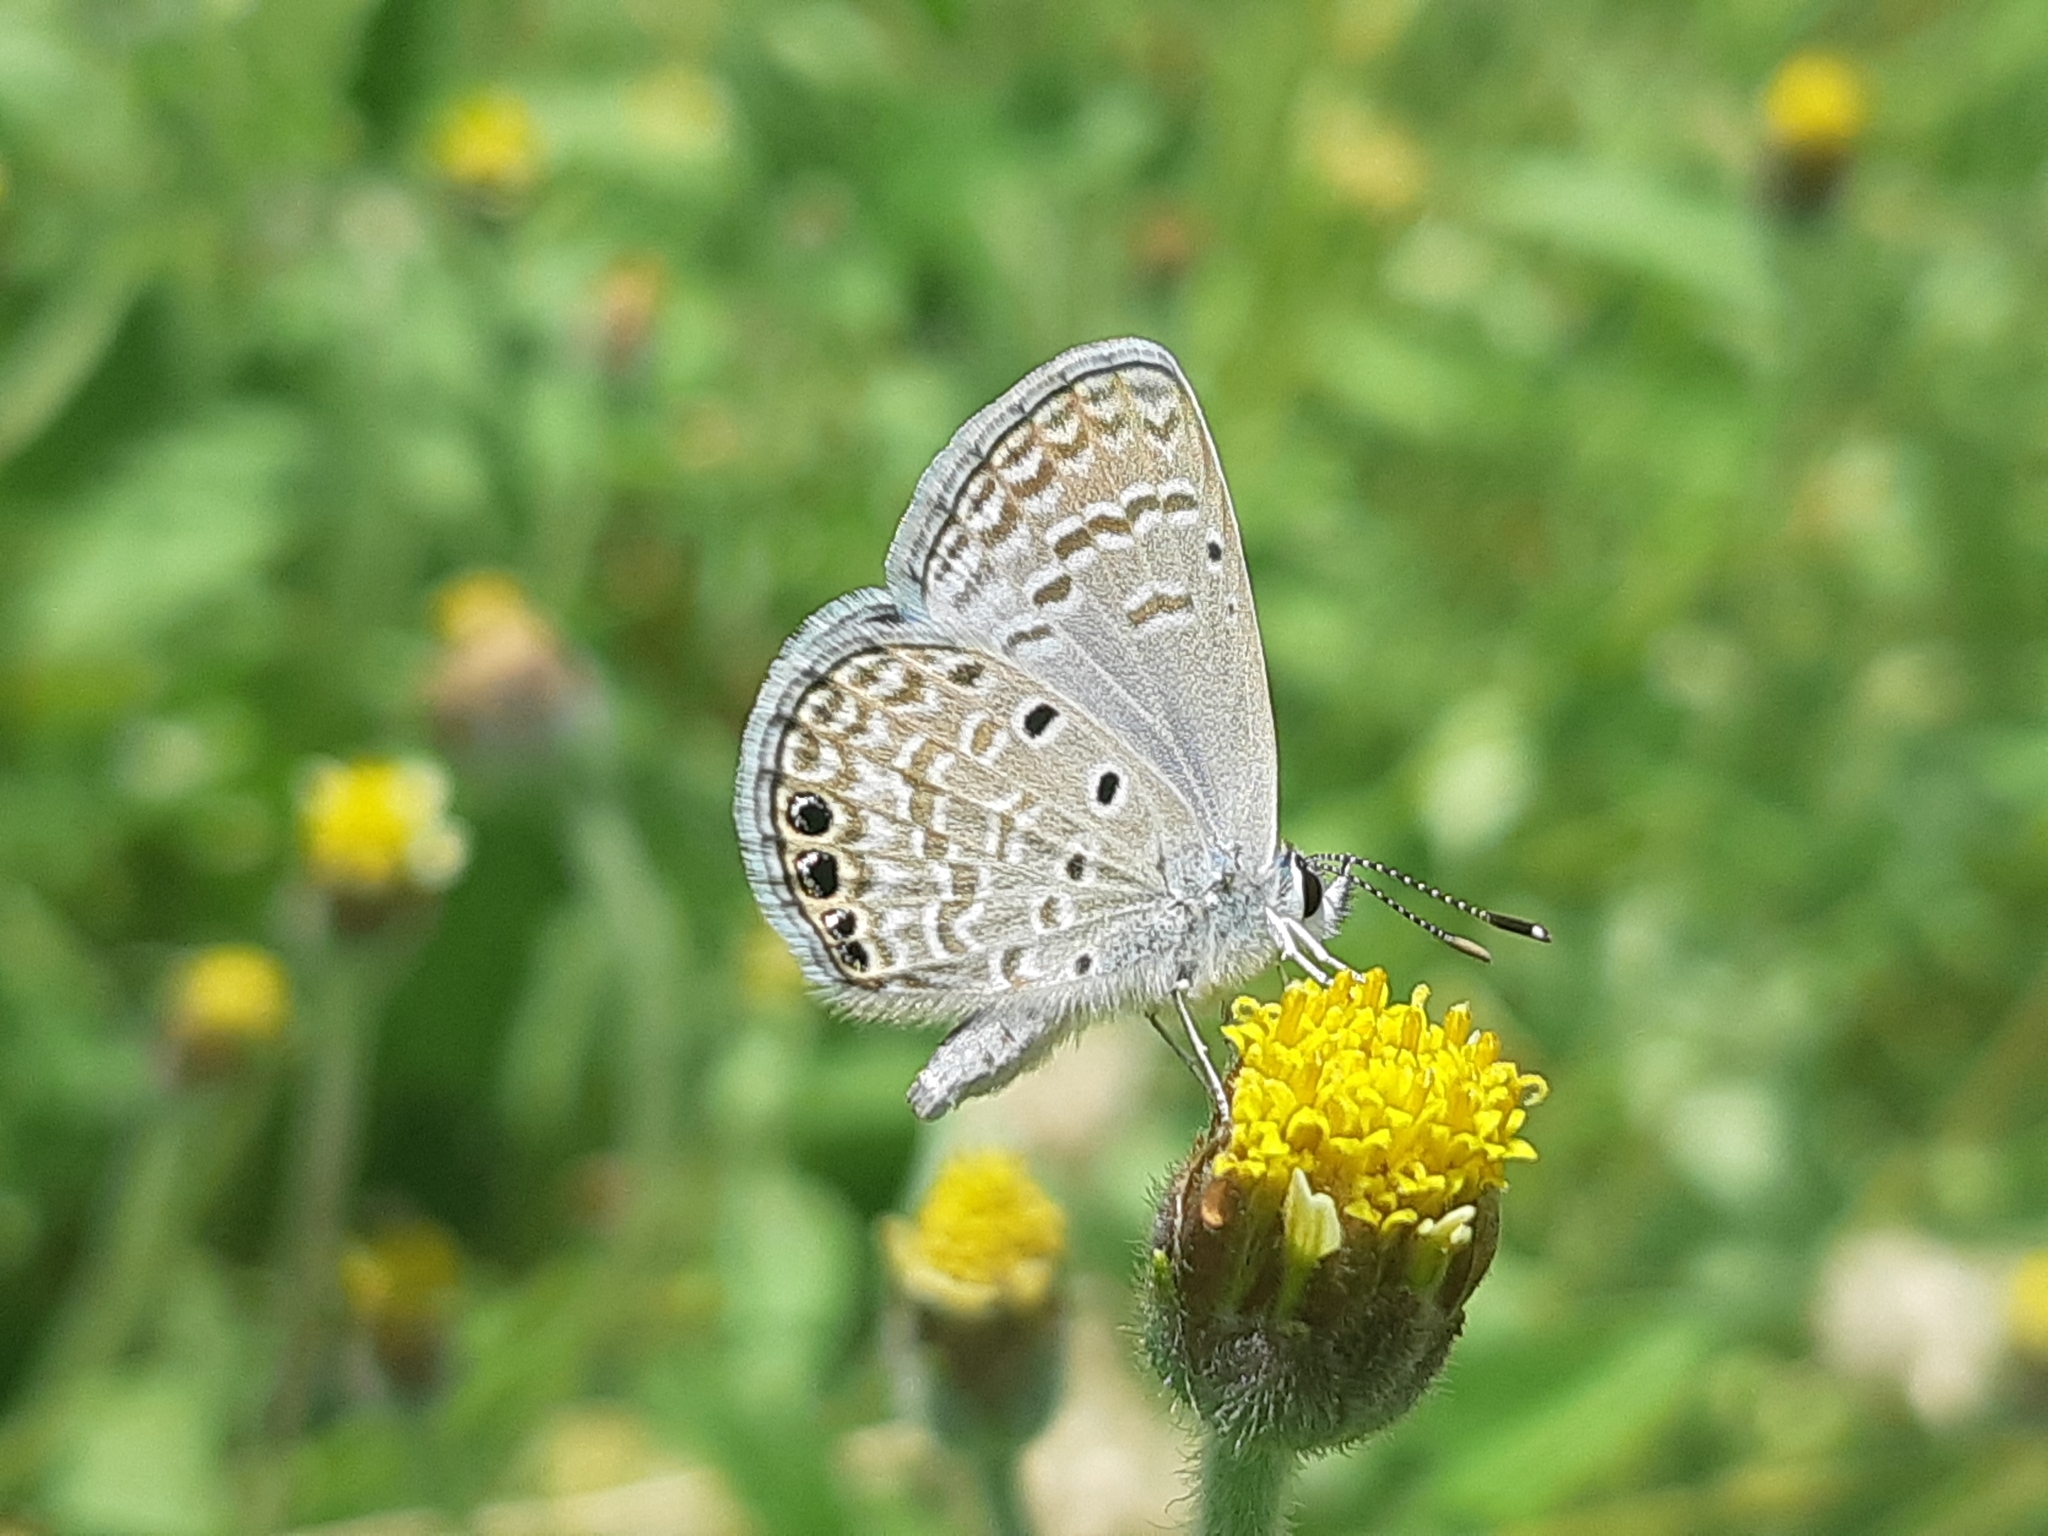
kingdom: Animalia
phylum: Arthropoda
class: Insecta
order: Lepidoptera
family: Lycaenidae
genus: Hemiargus
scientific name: Hemiargus ramon
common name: Ramon blue
